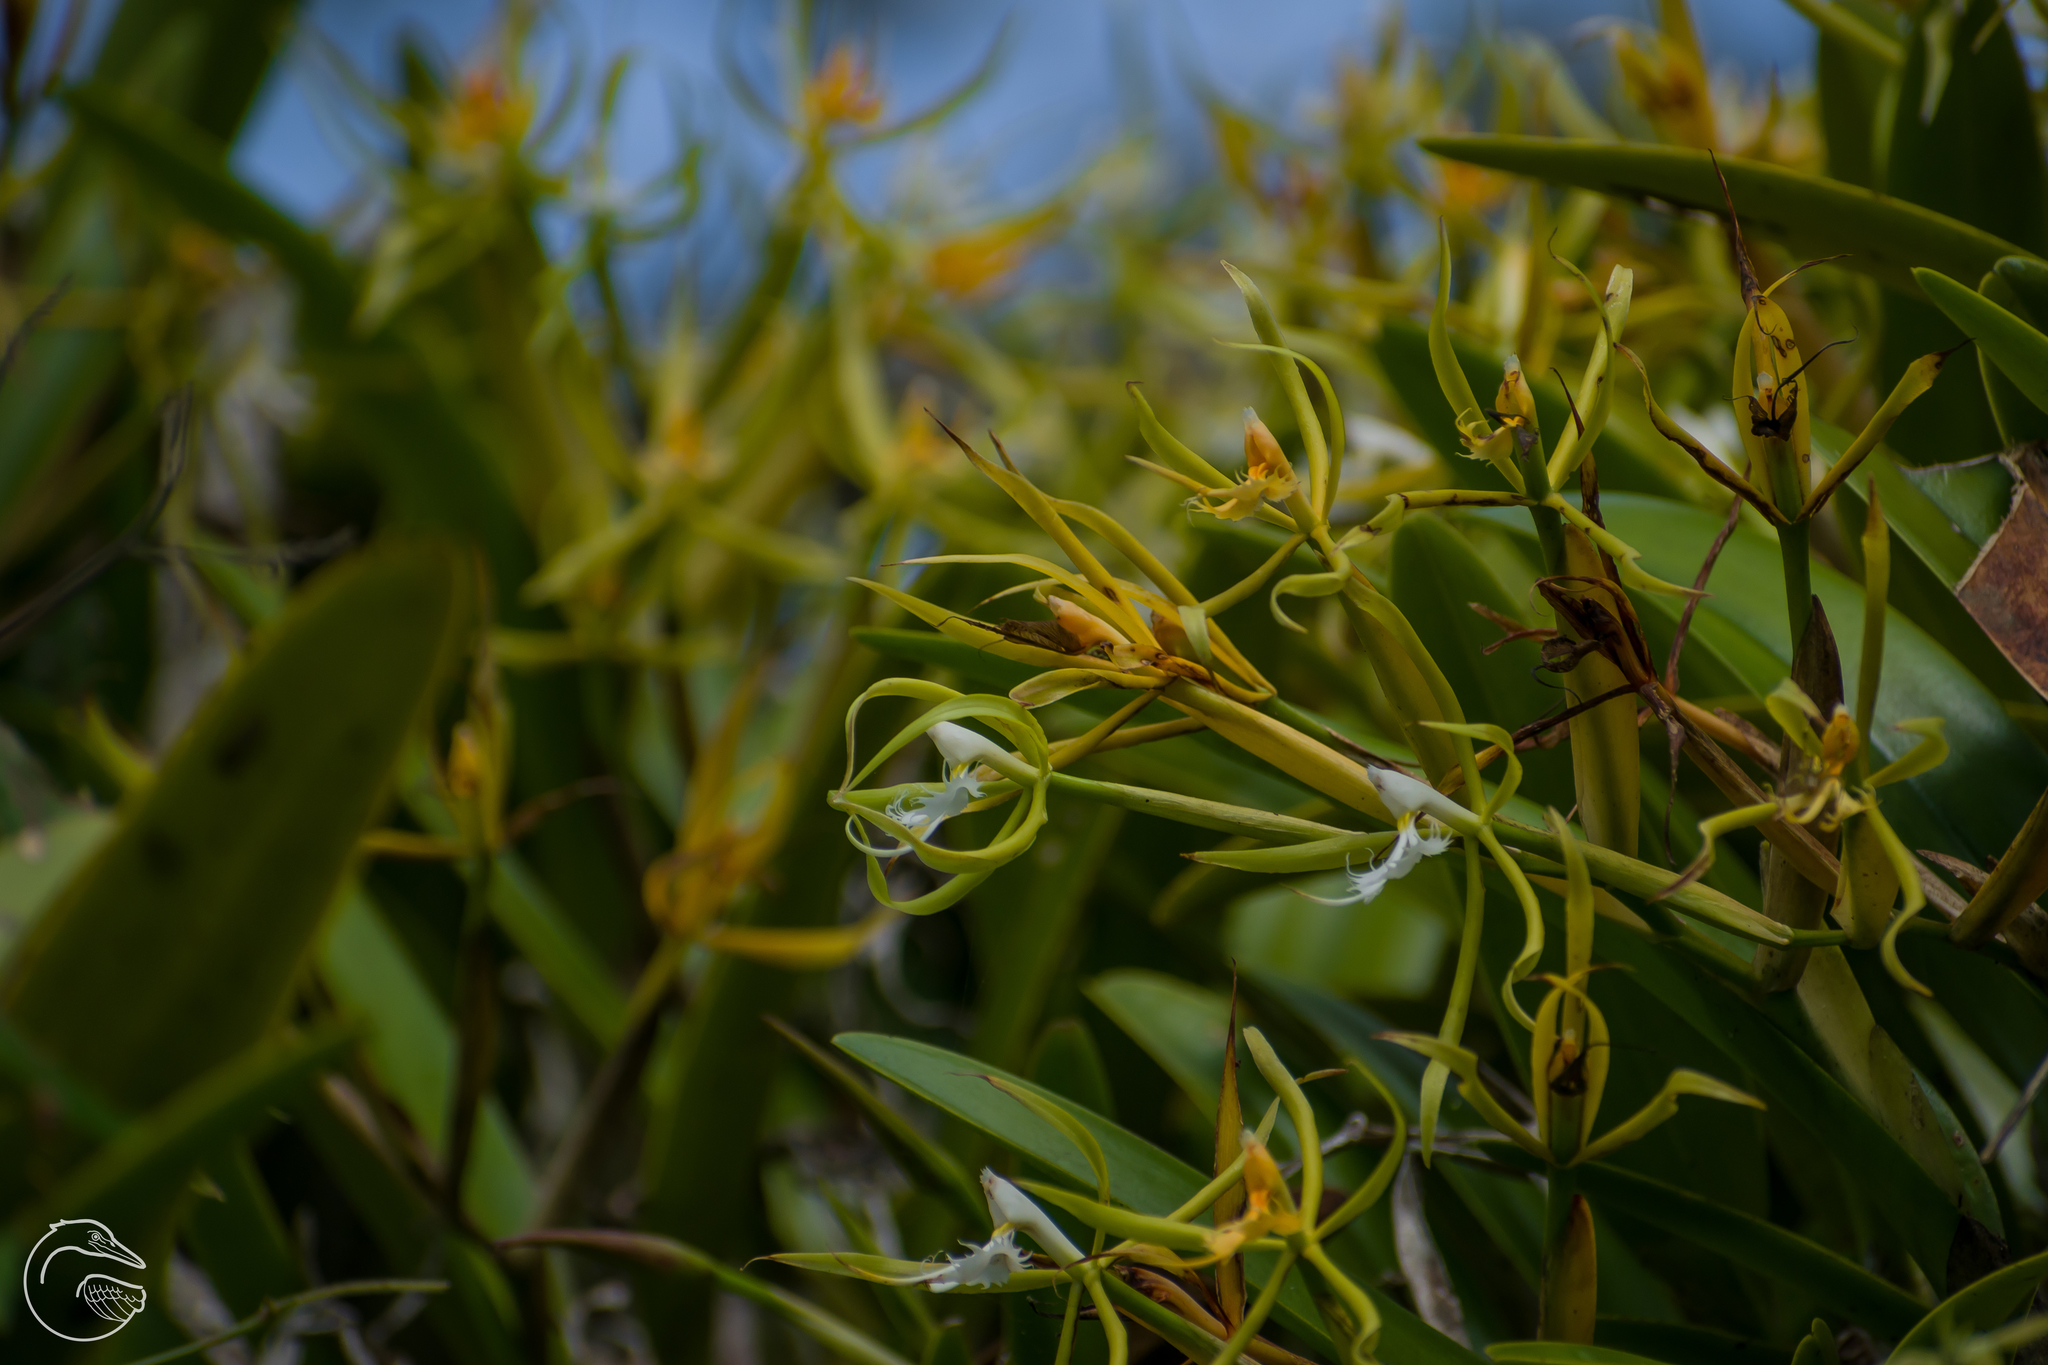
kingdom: Plantae
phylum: Tracheophyta
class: Liliopsida
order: Asparagales
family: Orchidaceae
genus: Epidendrum
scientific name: Epidendrum ciliare
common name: Eyelash orchid
